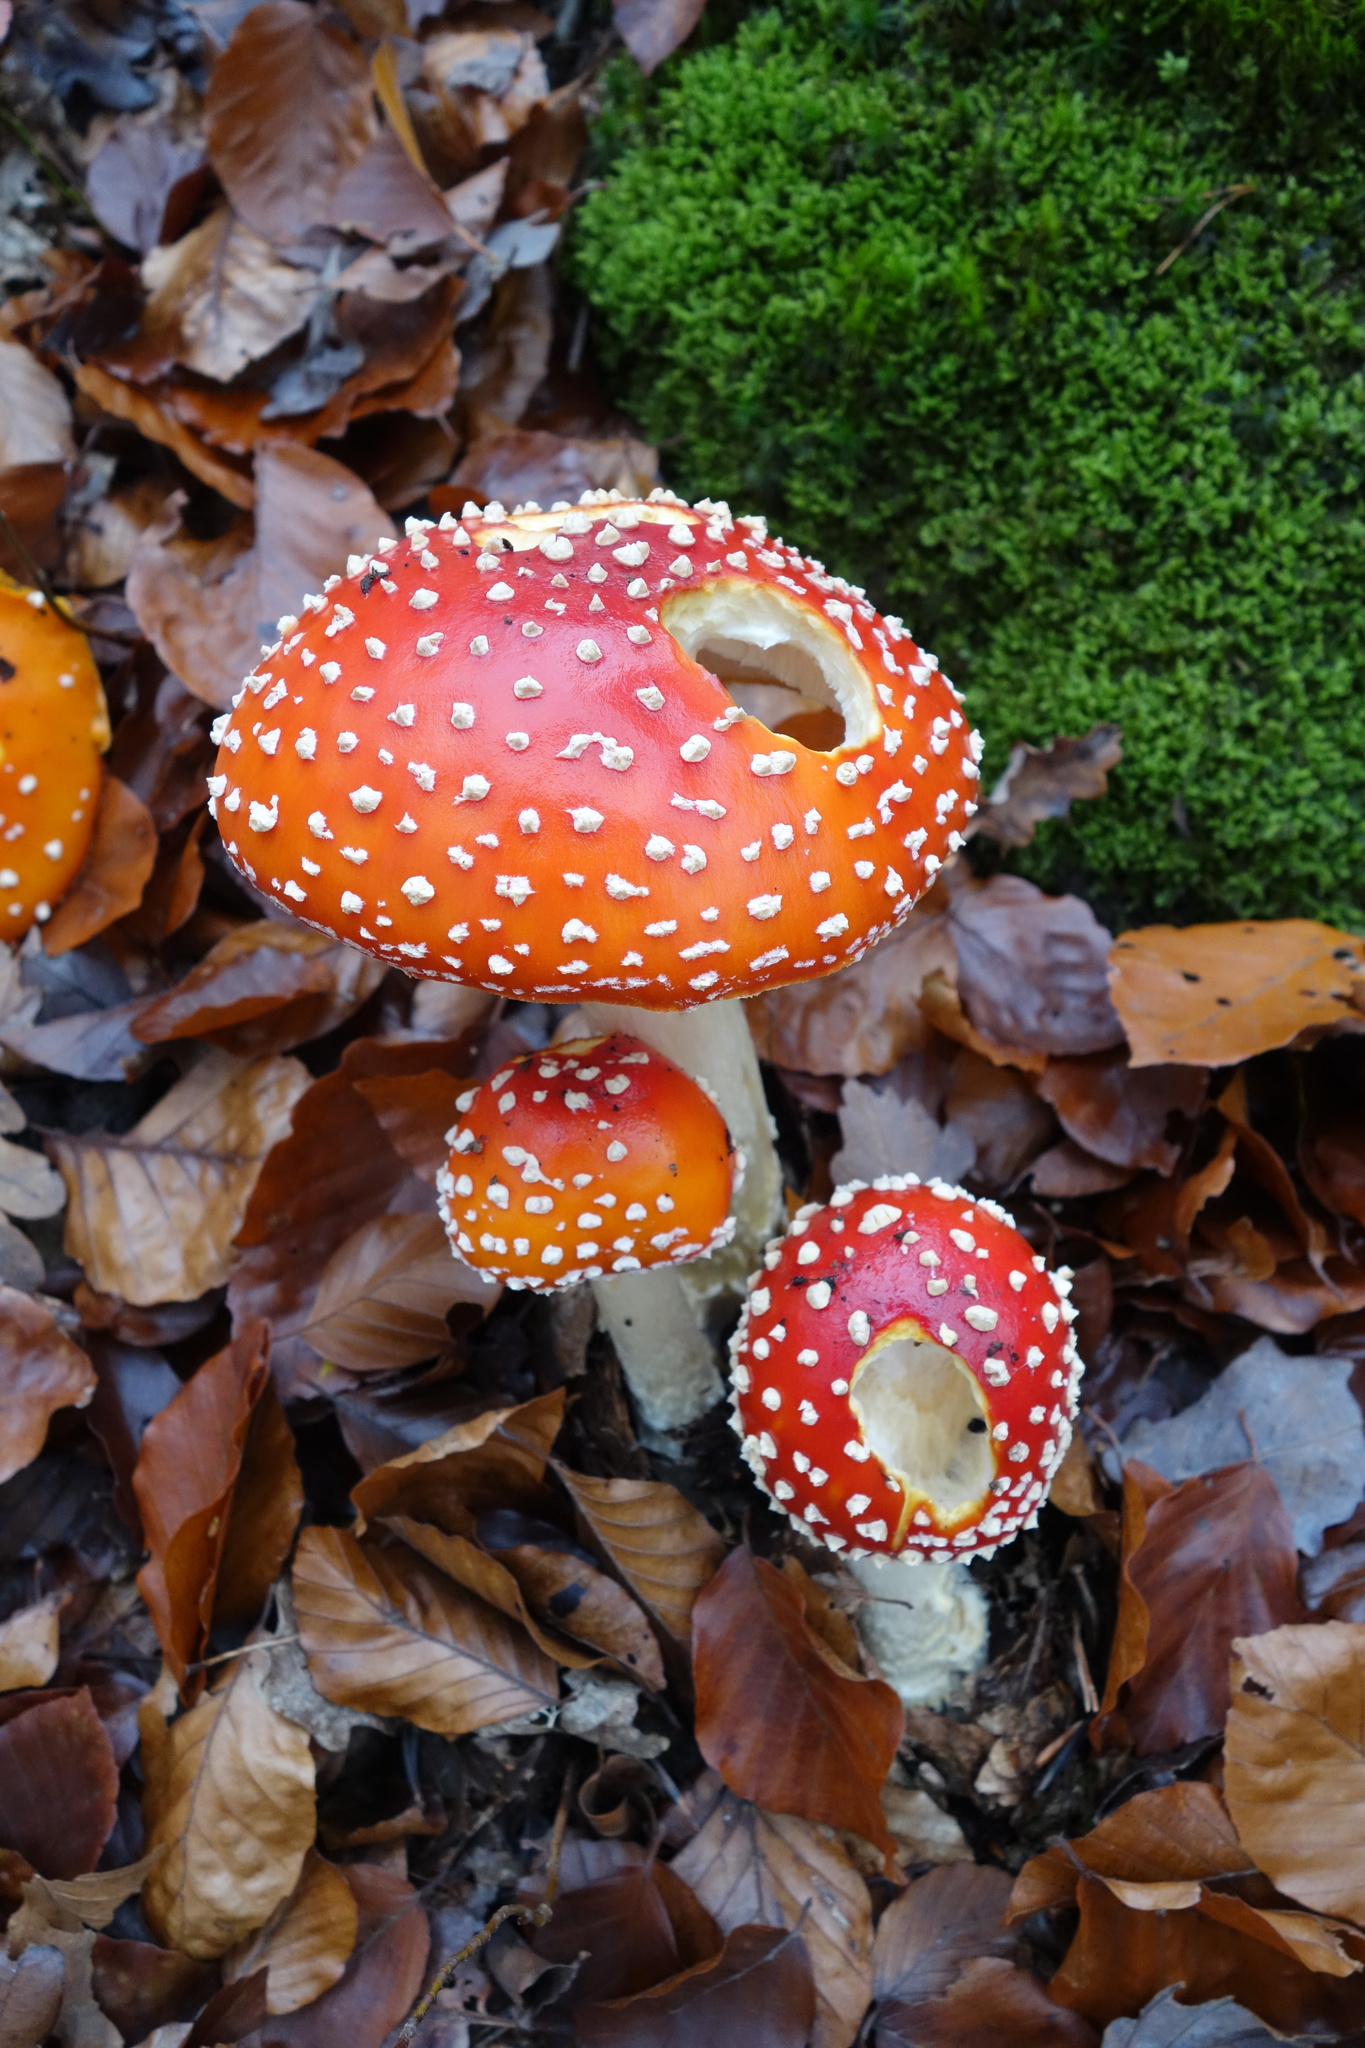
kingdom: Fungi
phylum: Basidiomycota
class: Agaricomycetes
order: Agaricales
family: Amanitaceae
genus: Amanita
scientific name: Amanita muscaria
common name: Fly agaric
